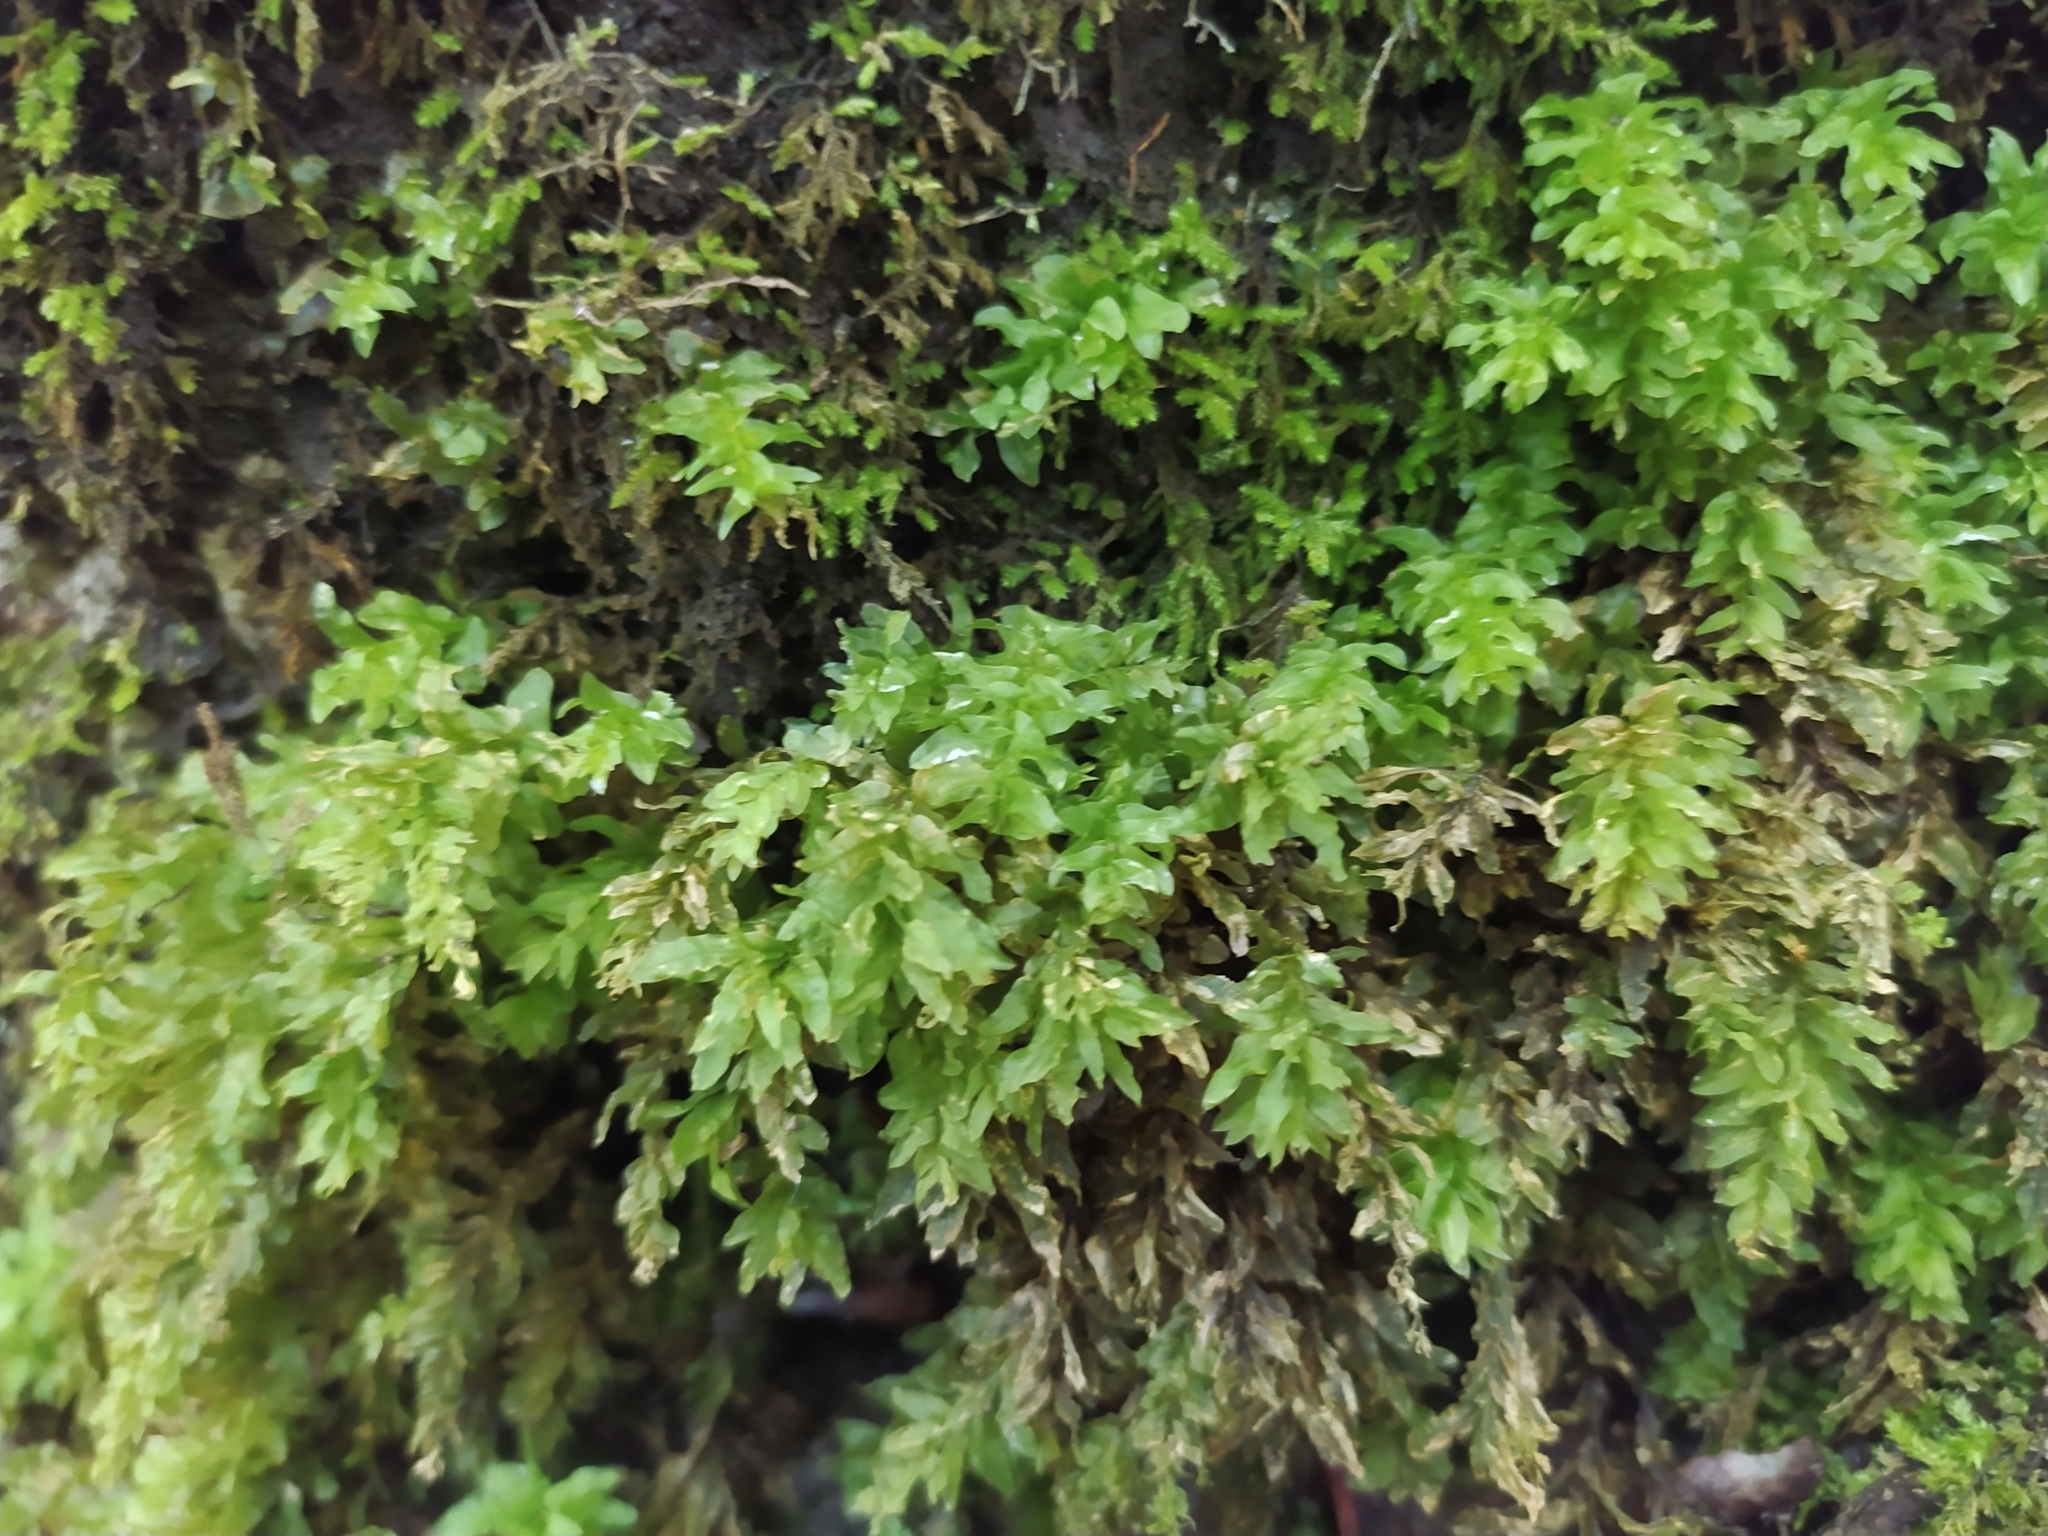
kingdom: Plantae
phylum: Bryophyta
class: Bryopsida
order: Bryales
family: Mniaceae
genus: Plagiomnium
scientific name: Plagiomnium undulatum
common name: Hart's-tongue thyme-moss
